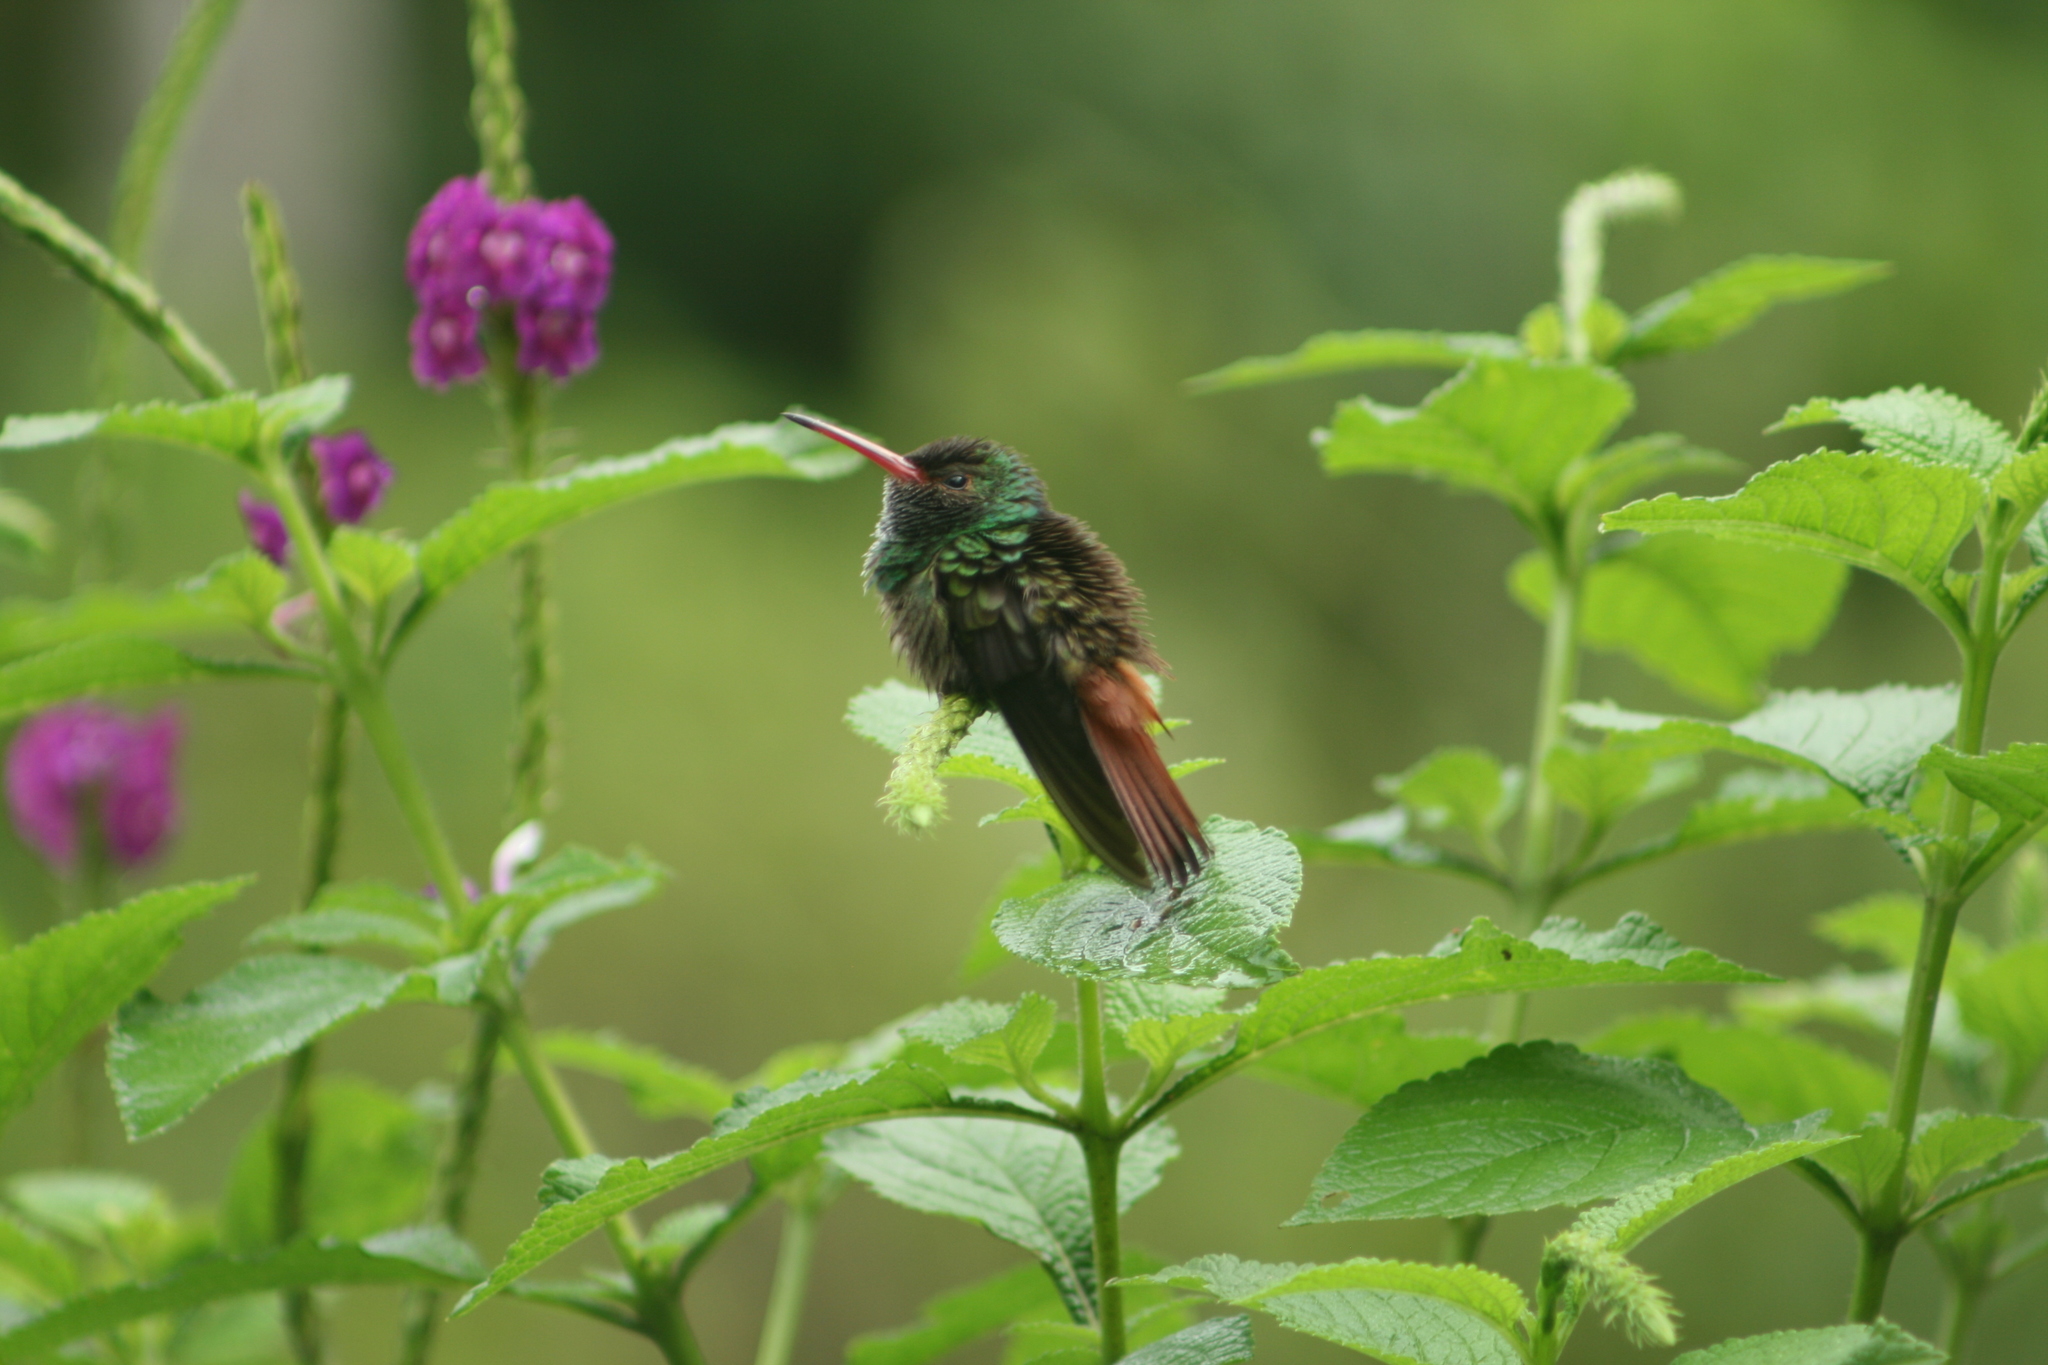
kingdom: Animalia
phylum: Chordata
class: Aves
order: Apodiformes
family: Trochilidae
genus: Amazilia
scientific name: Amazilia tzacatl
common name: Rufous-tailed hummingbird
